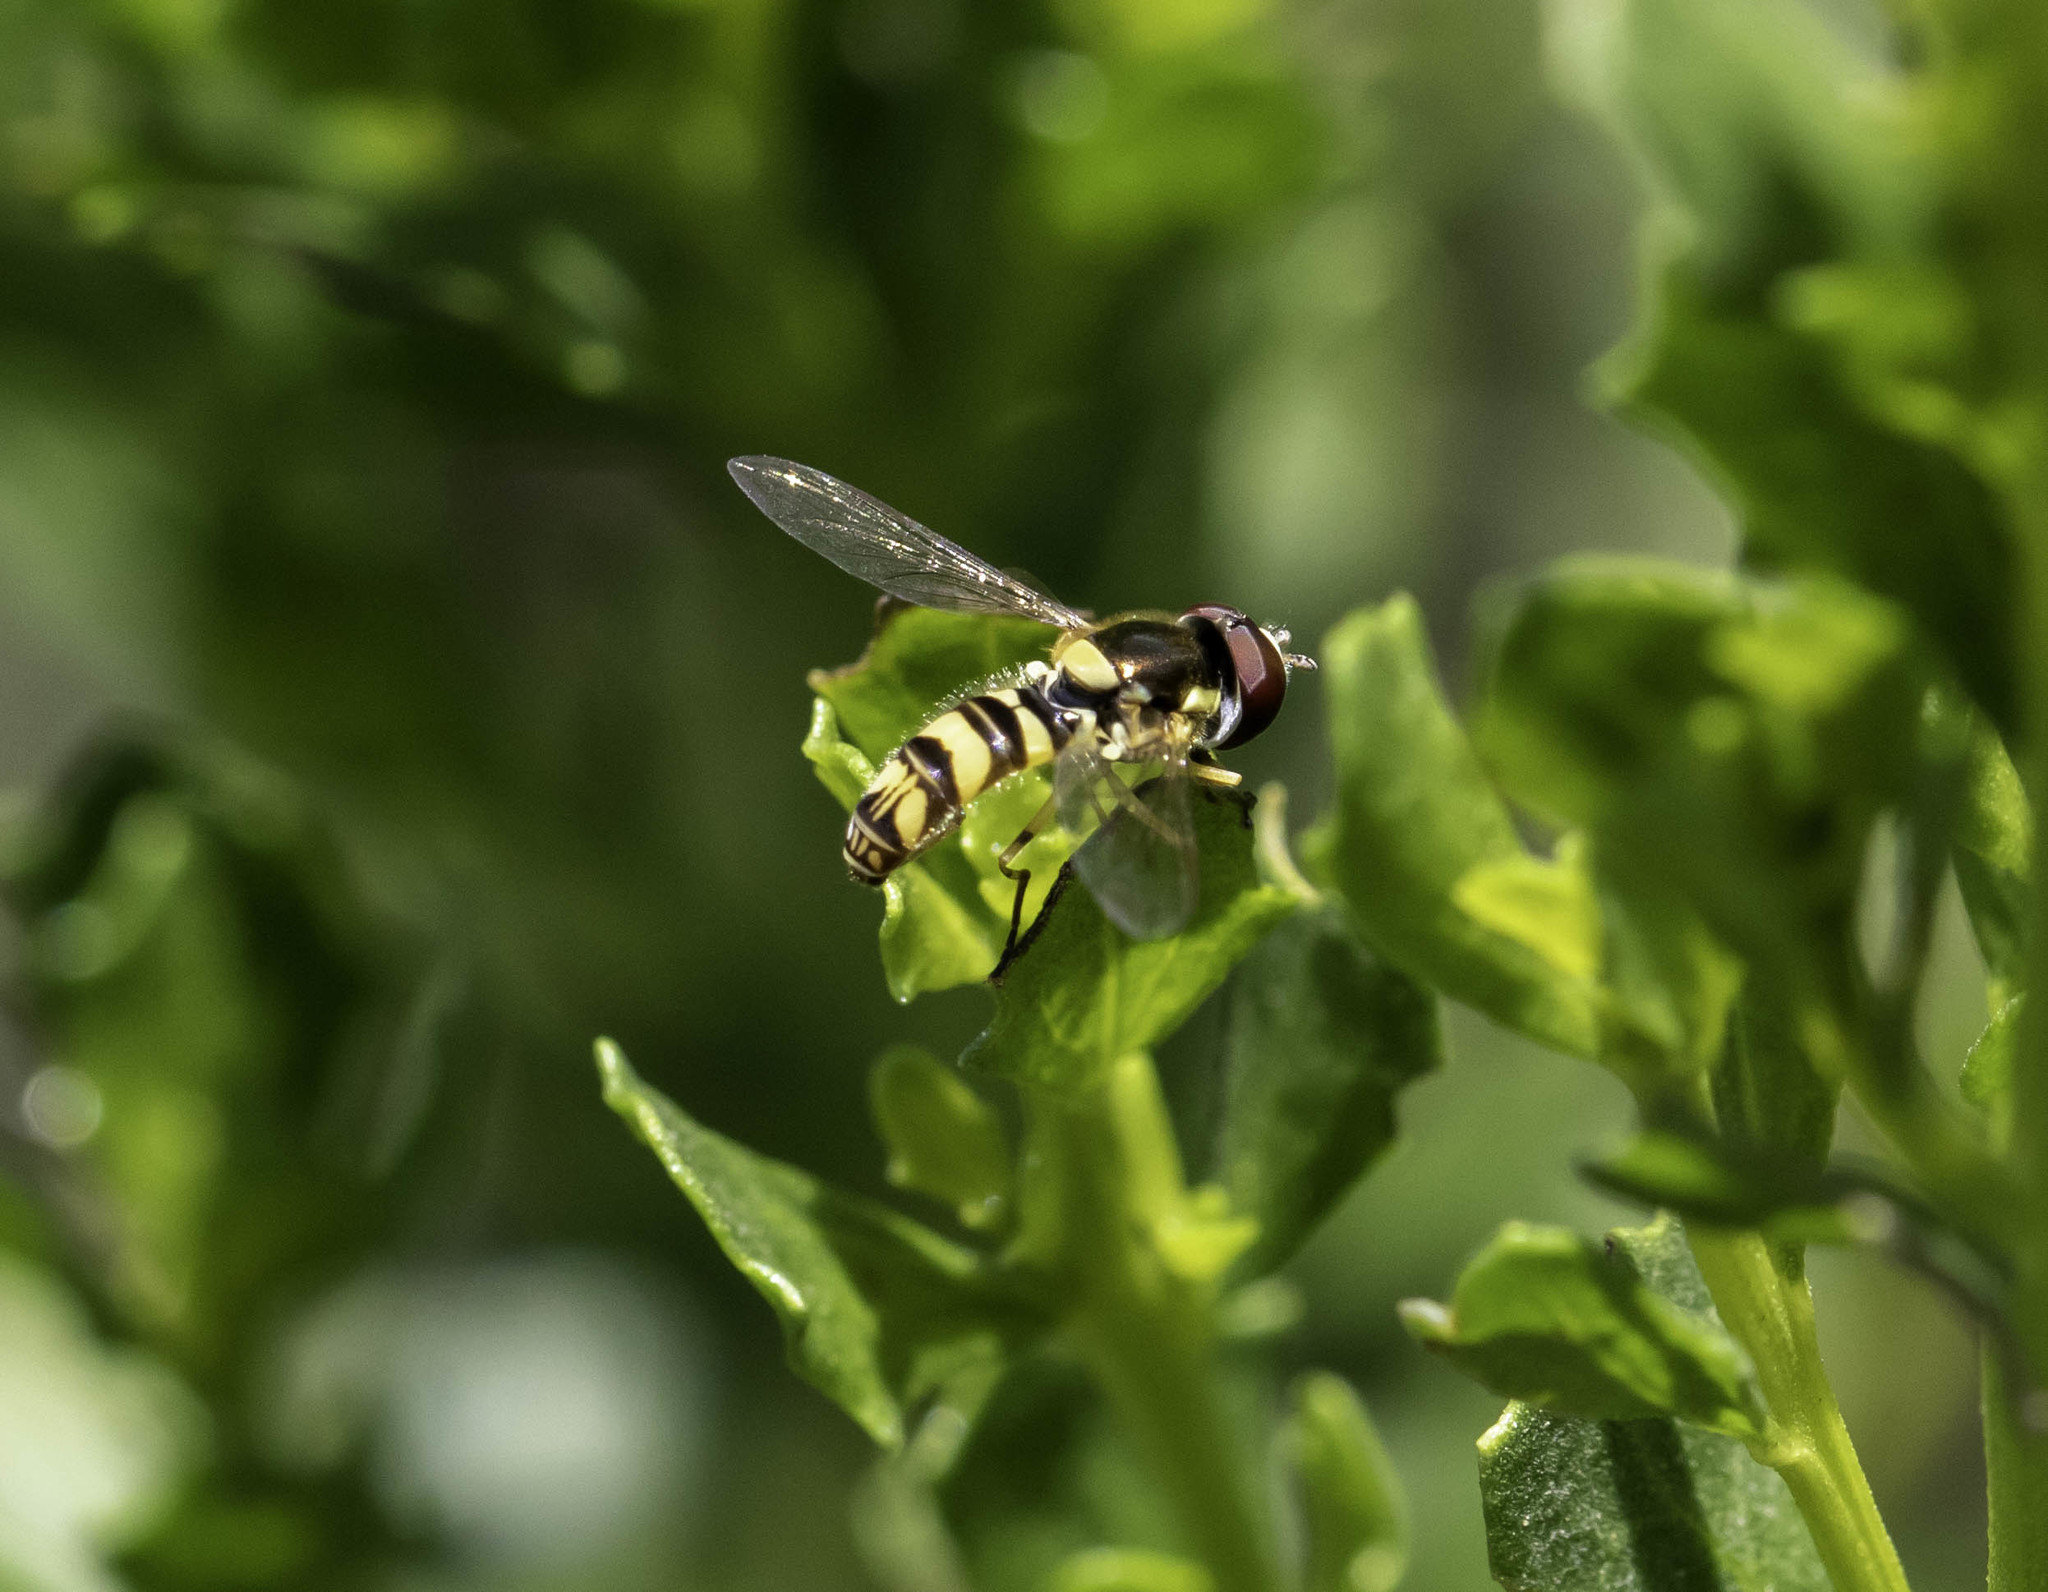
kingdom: Animalia
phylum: Arthropoda
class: Insecta
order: Diptera
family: Syrphidae
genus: Allograpta
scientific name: Allograpta exotica
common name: Syrphid fly
